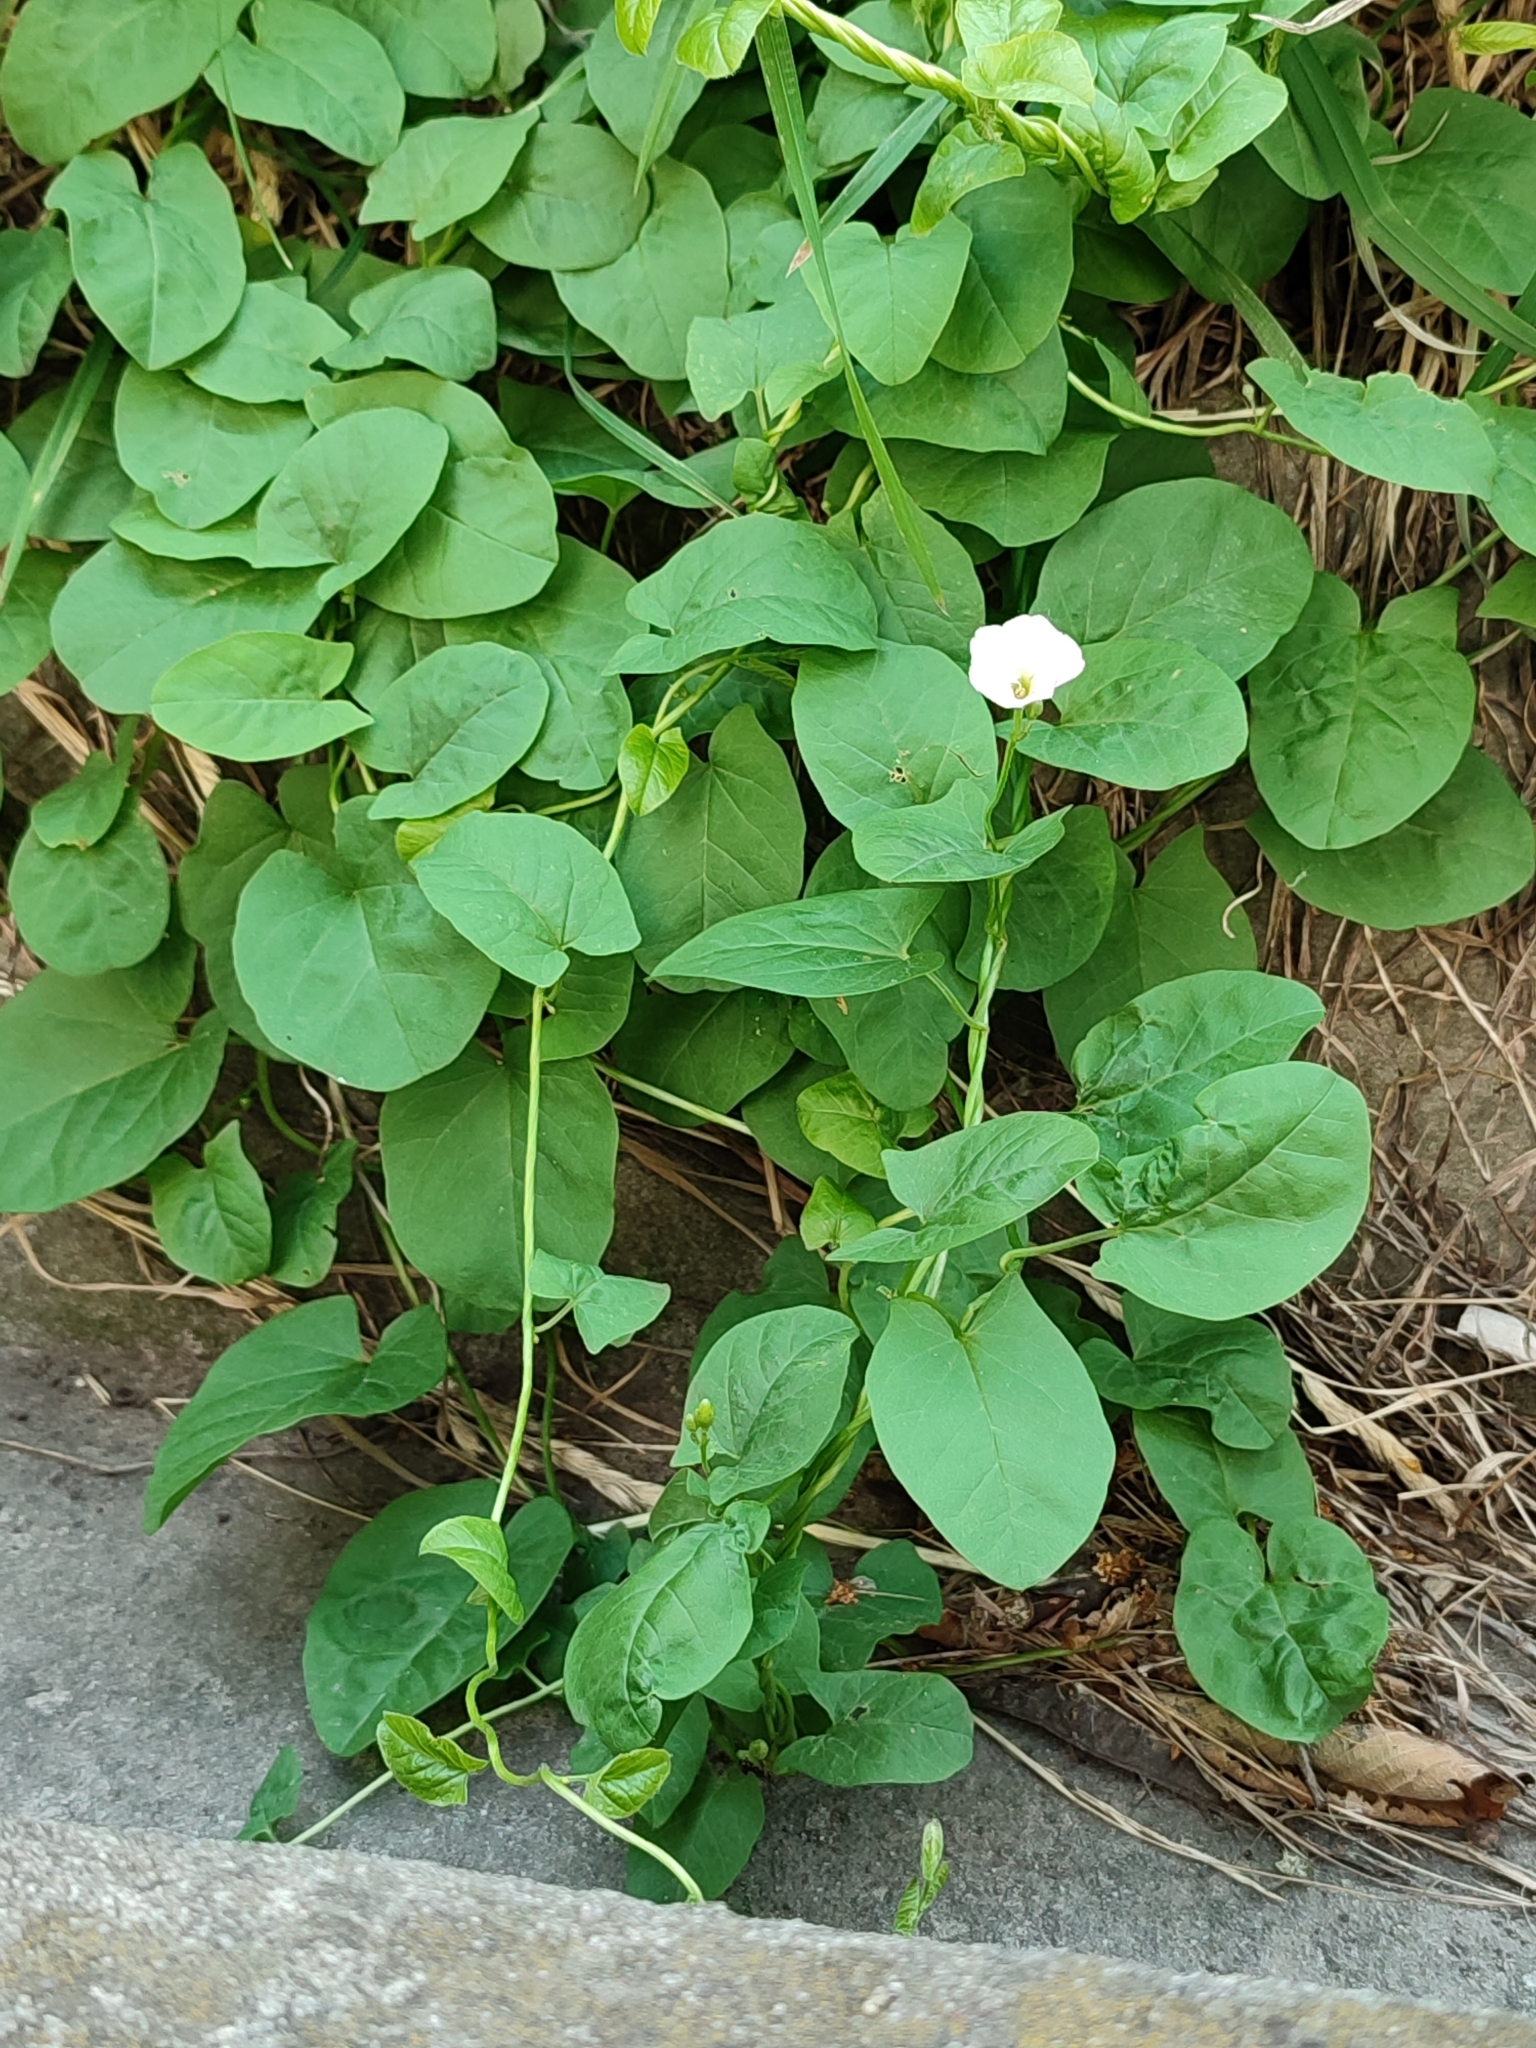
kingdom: Plantae
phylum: Tracheophyta
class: Magnoliopsida
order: Solanales
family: Convolvulaceae
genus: Convolvulus
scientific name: Convolvulus arvensis
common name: Field bindweed
